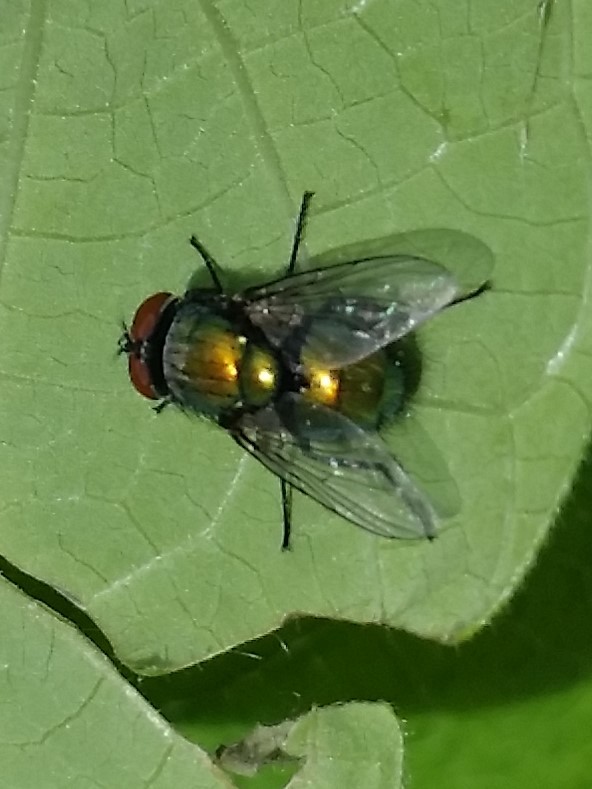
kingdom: Animalia
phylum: Arthropoda
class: Insecta
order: Diptera
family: Calliphoridae
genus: Lucilia
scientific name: Lucilia sericata
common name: Blow fly
